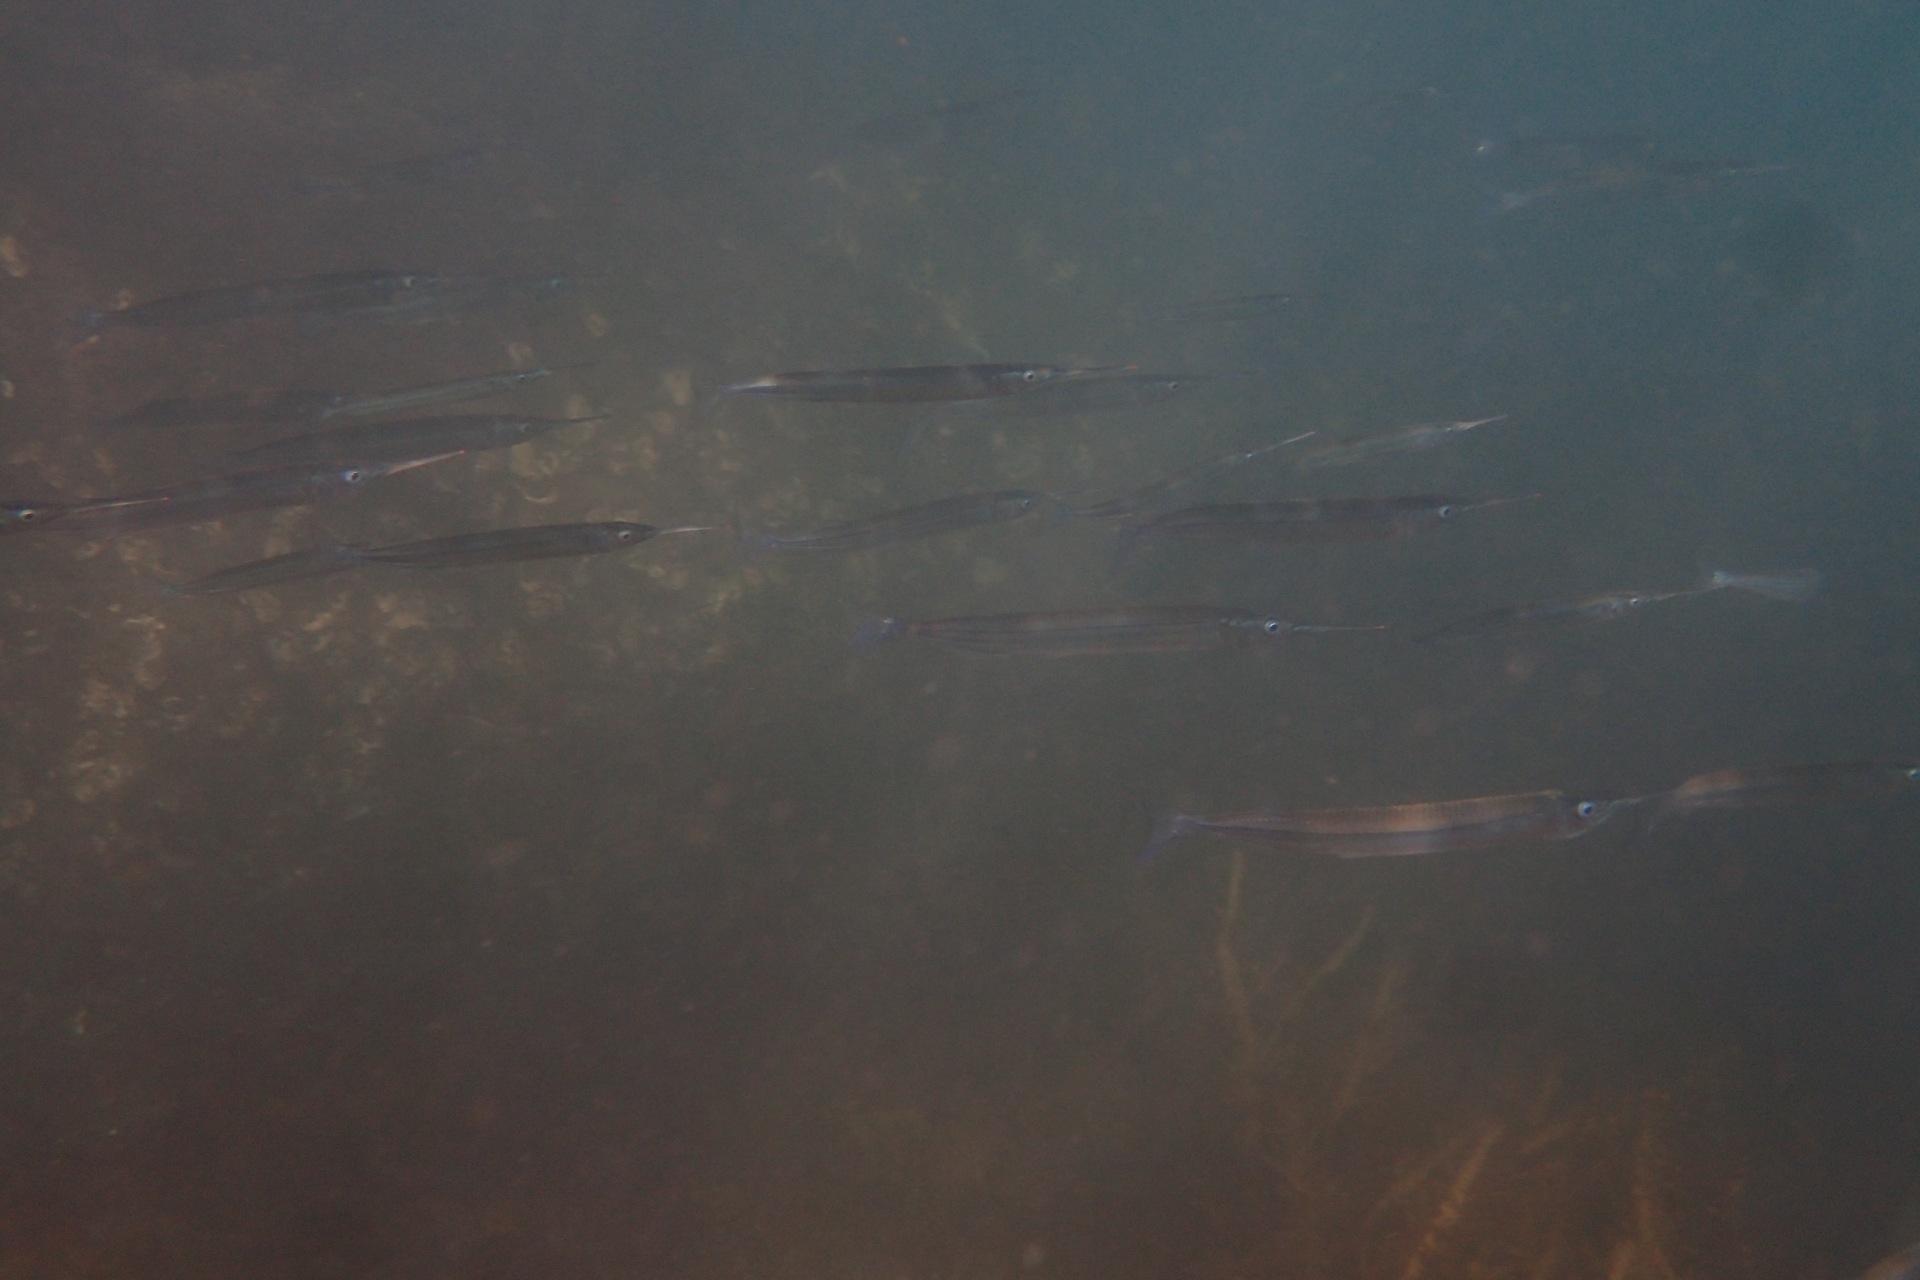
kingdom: Animalia
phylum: Chordata
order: Beloniformes
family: Hemiramphidae
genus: Hyporhamphus
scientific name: Hyporhamphus ihi
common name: Garfish
